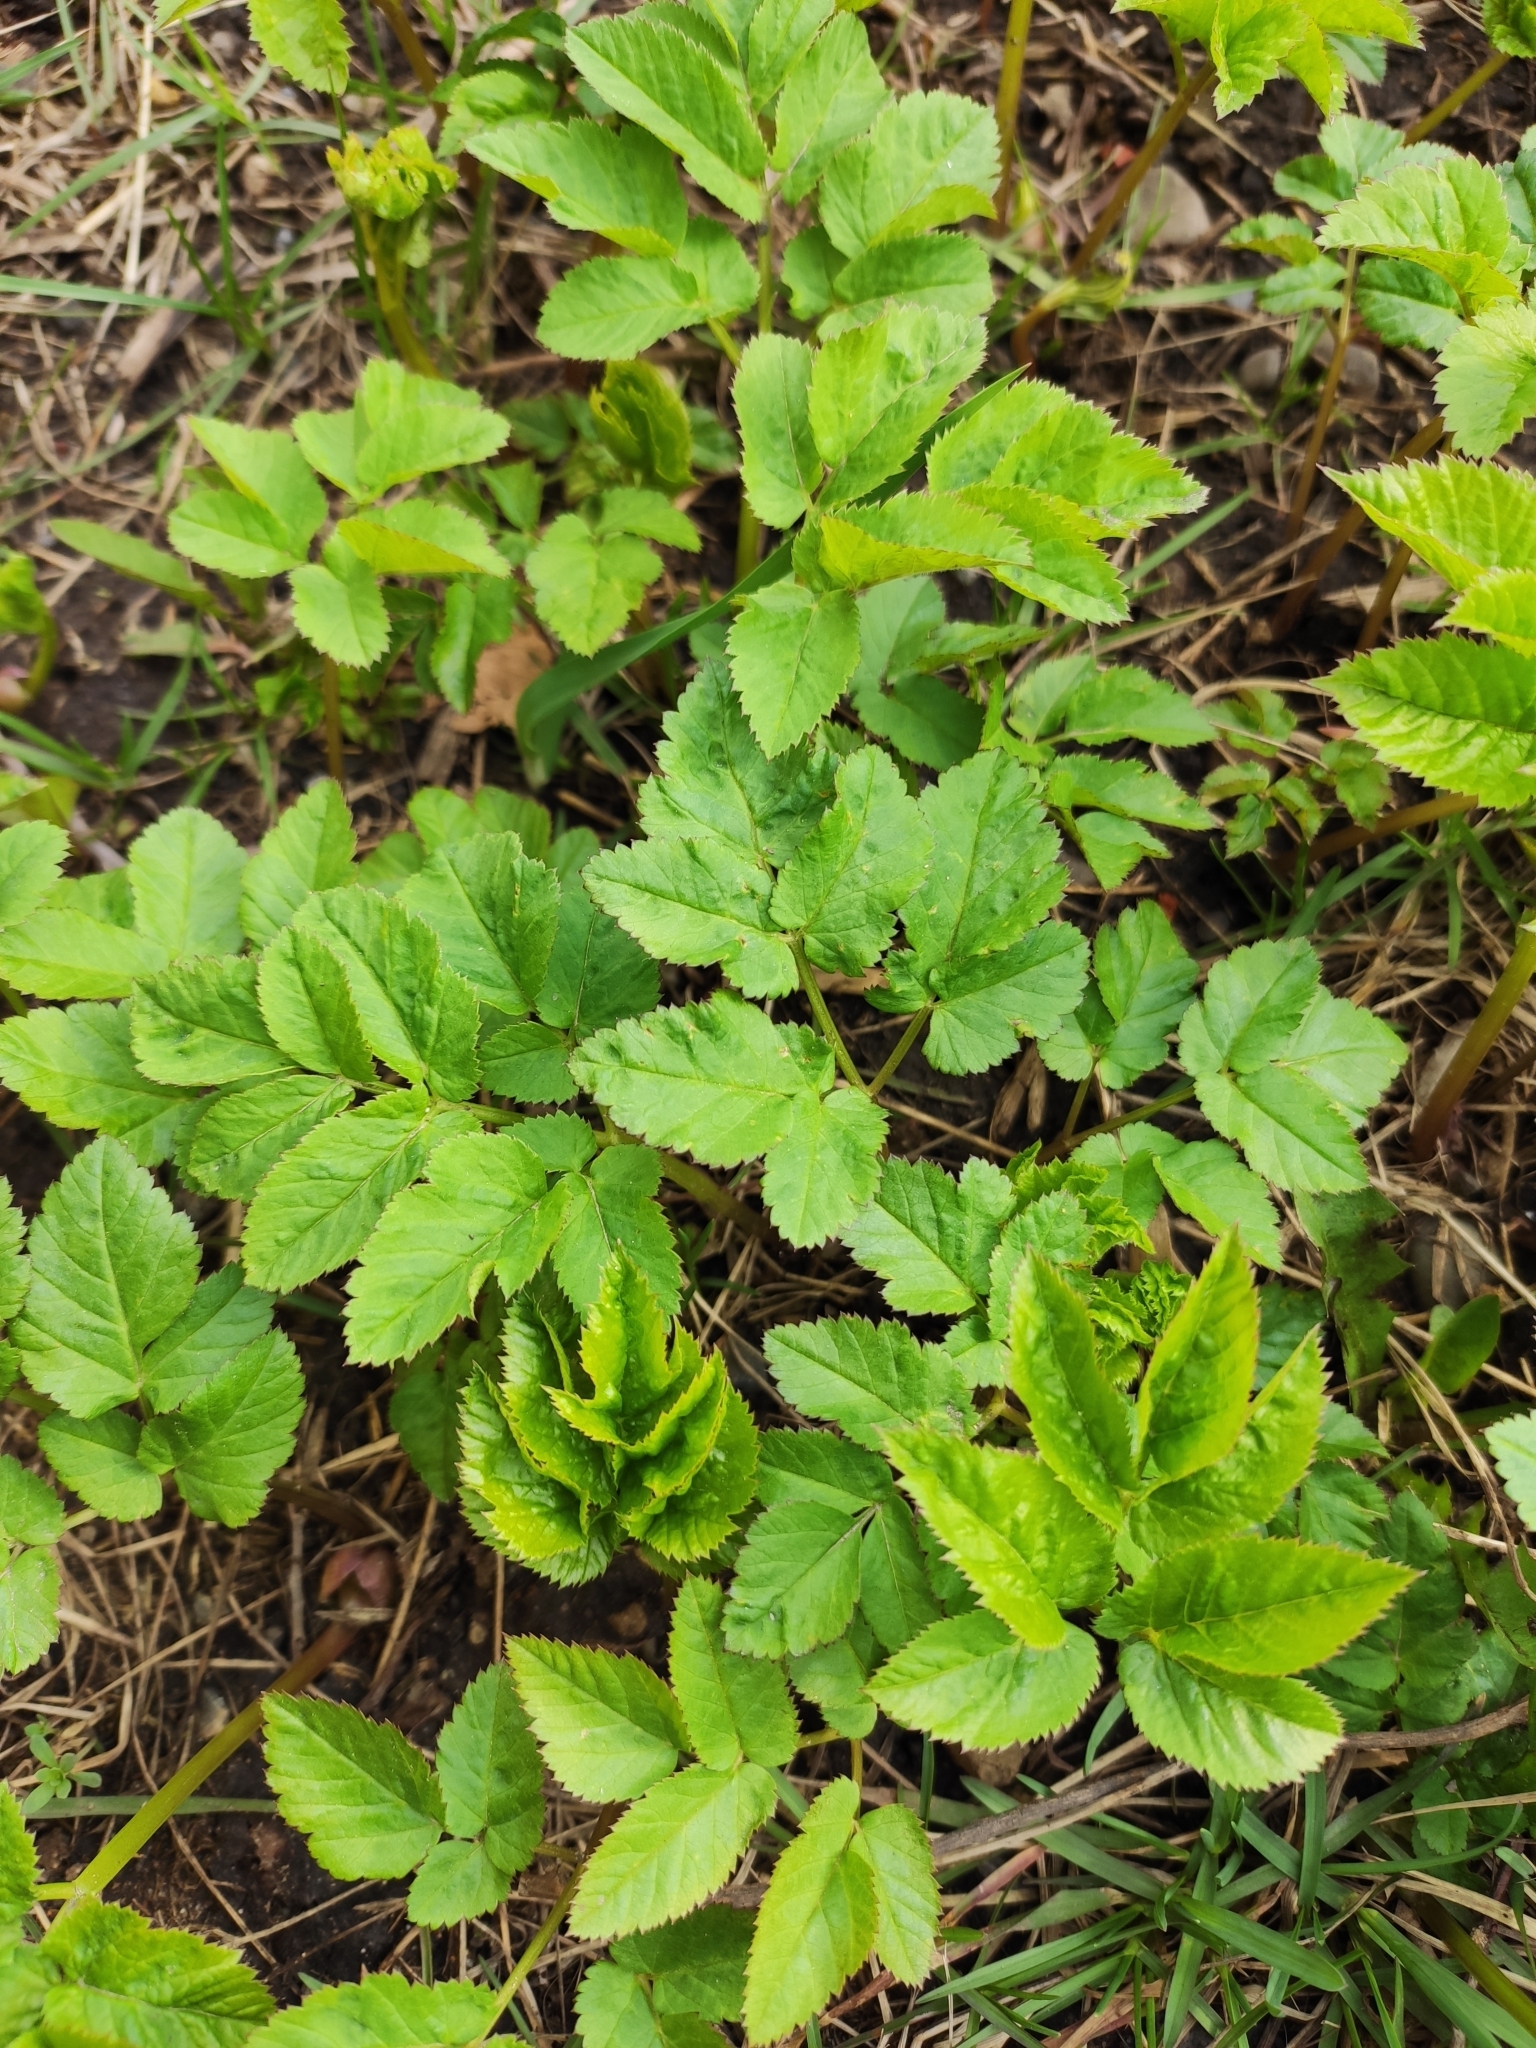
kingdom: Plantae
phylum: Tracheophyta
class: Magnoliopsida
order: Apiales
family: Apiaceae
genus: Aegopodium
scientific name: Aegopodium podagraria
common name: Ground-elder
